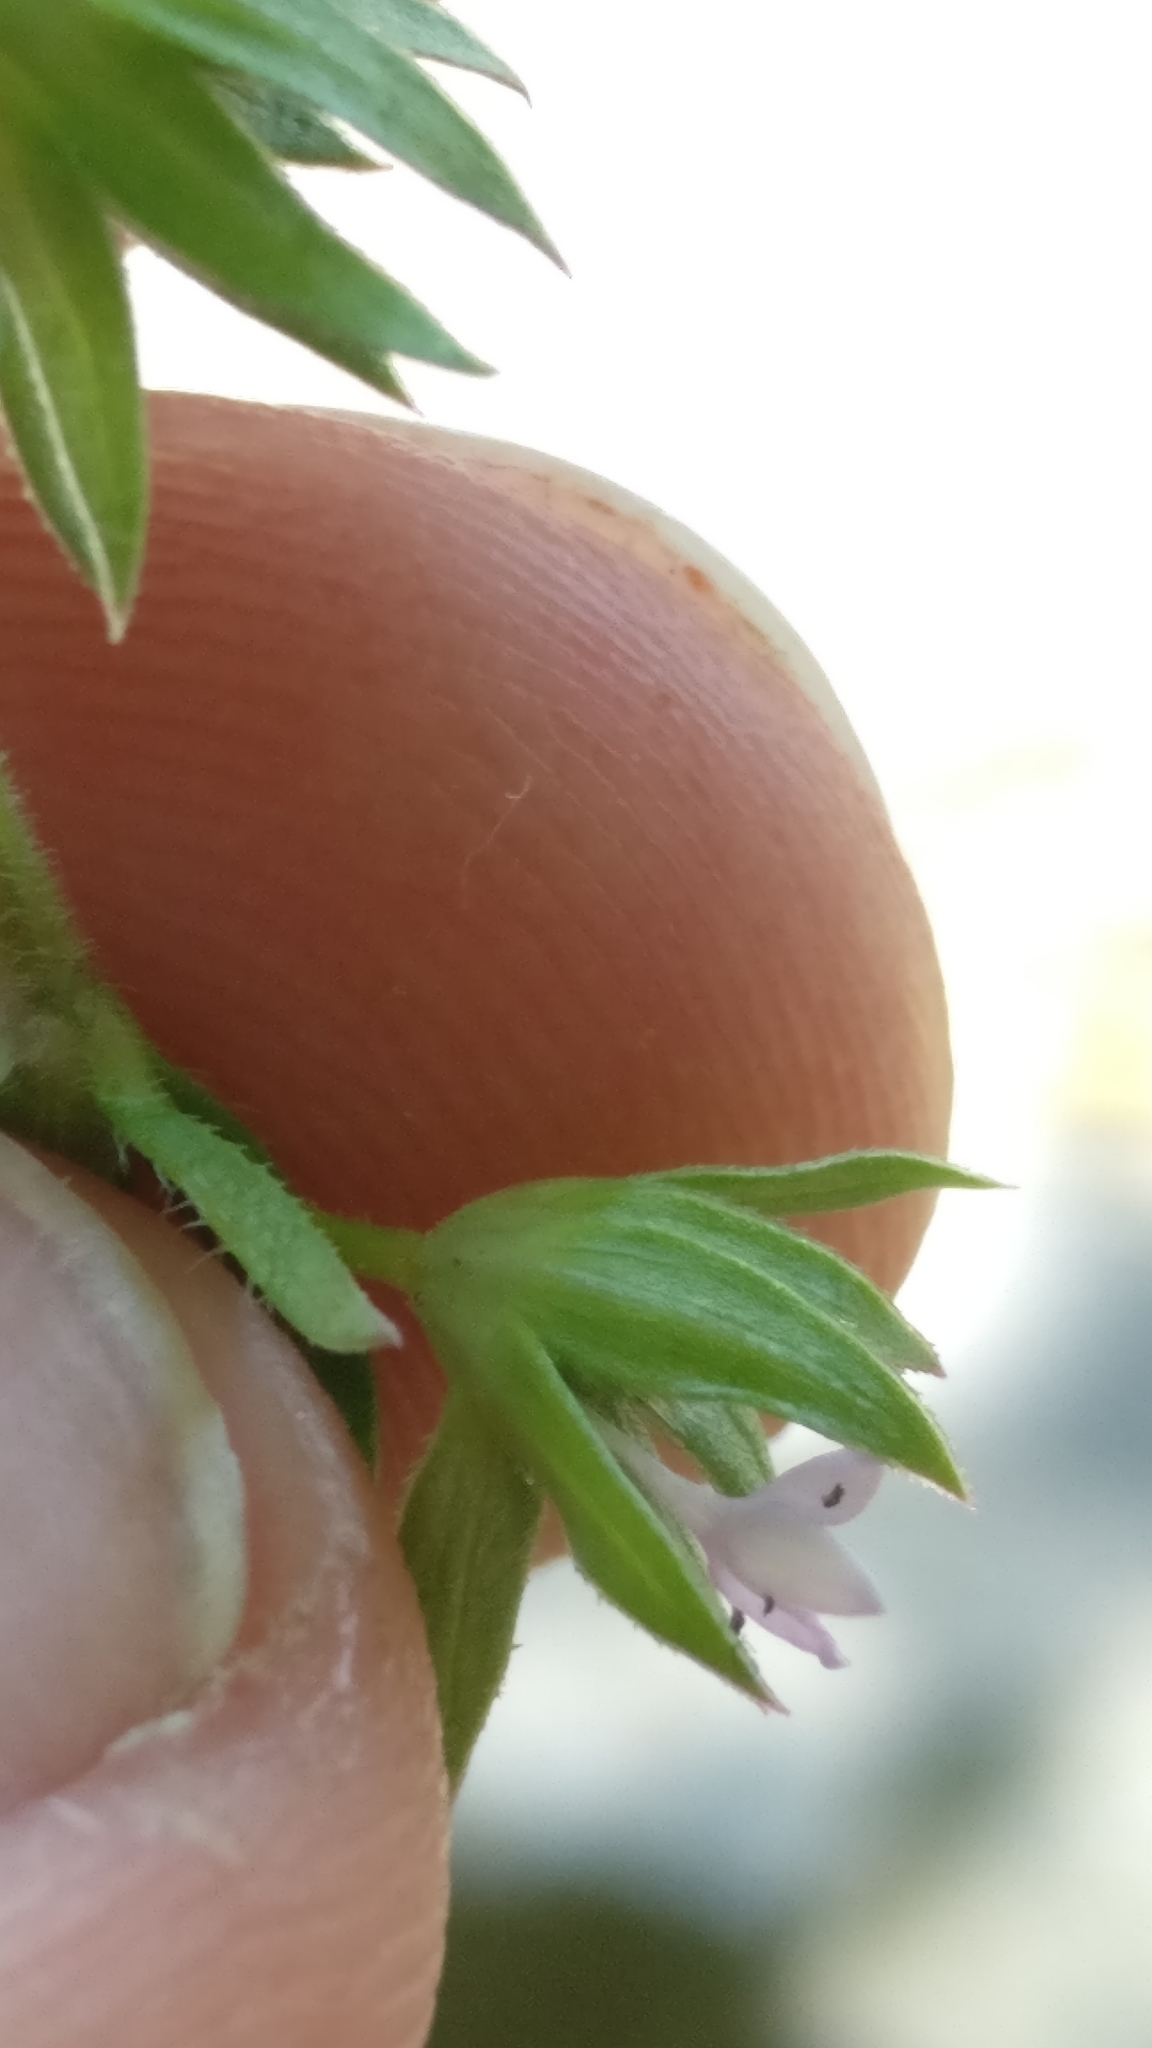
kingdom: Plantae
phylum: Tracheophyta
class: Magnoliopsida
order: Gentianales
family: Rubiaceae
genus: Sherardia
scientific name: Sherardia arvensis
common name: Field madder
